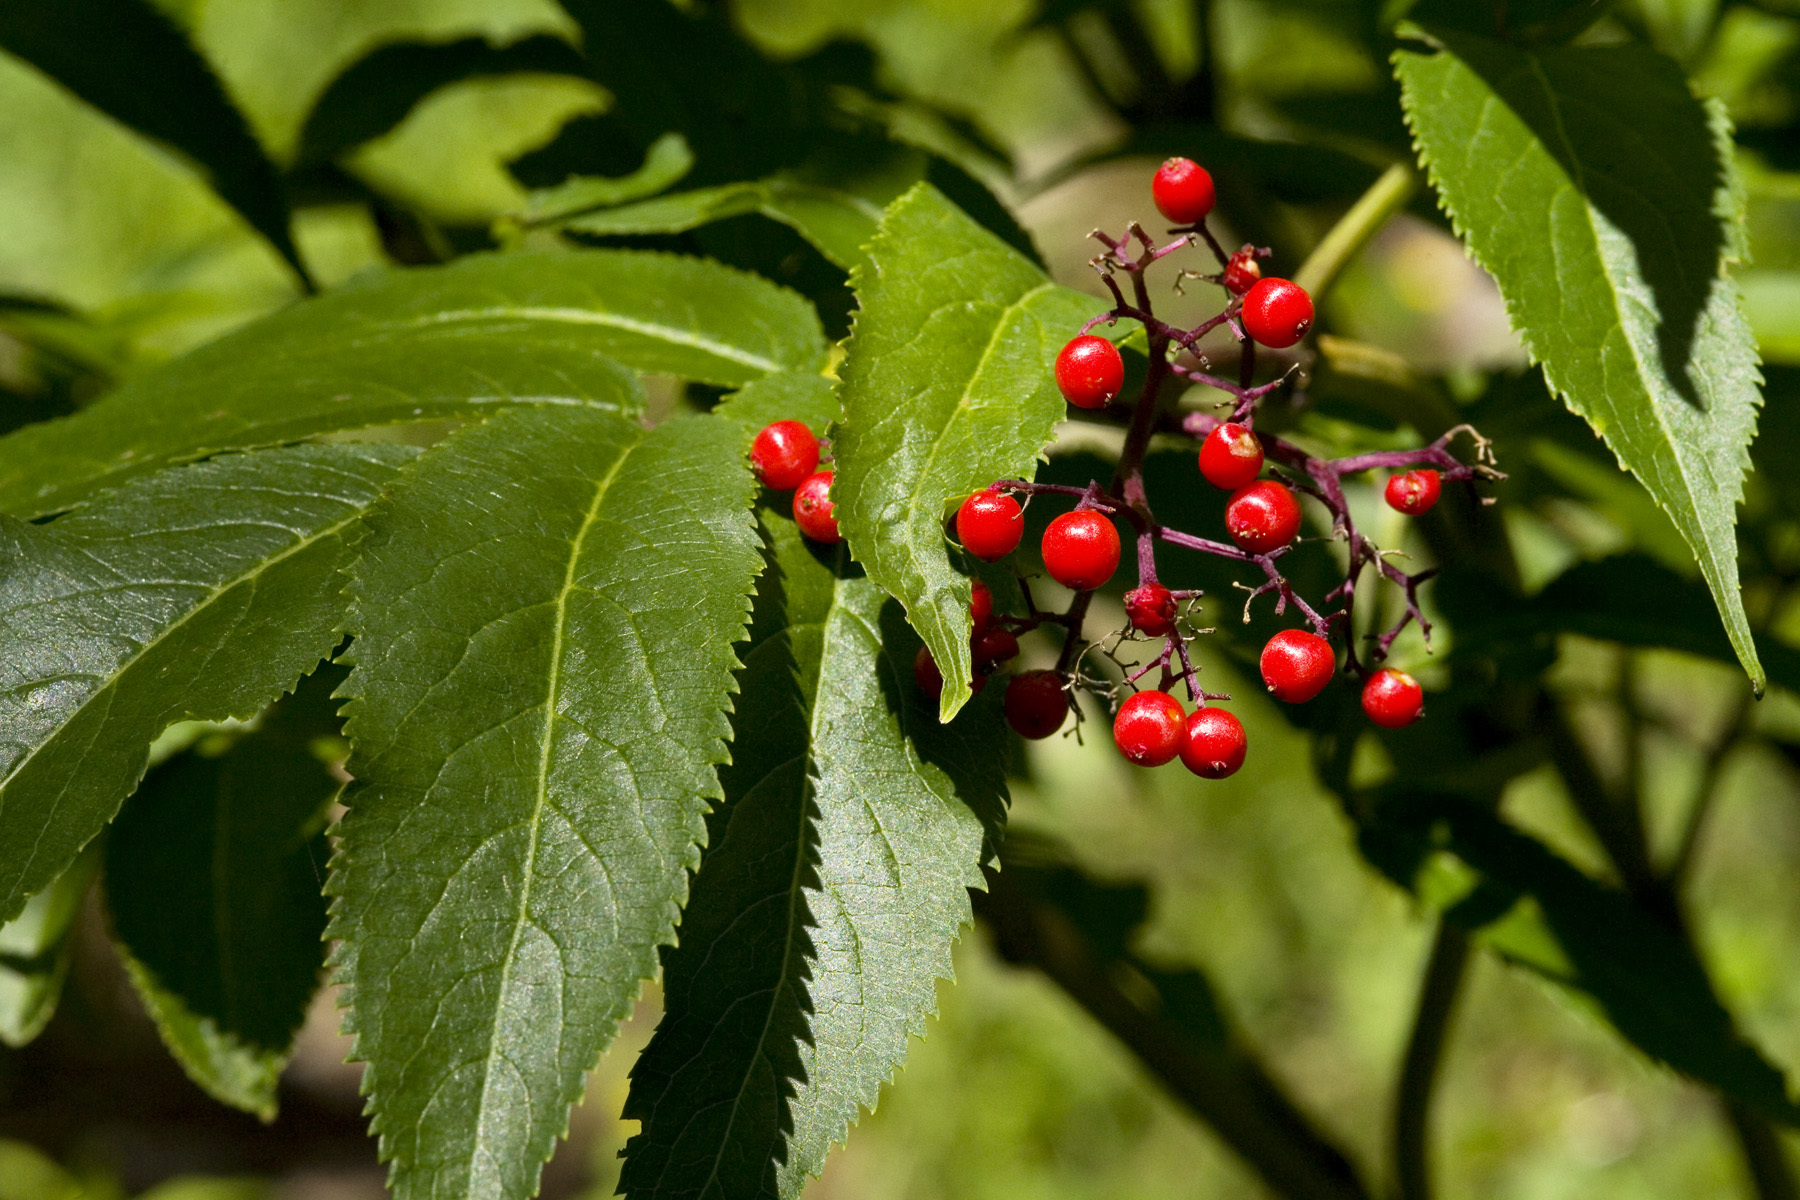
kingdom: Plantae
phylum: Tracheophyta
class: Magnoliopsida
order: Dipsacales
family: Viburnaceae
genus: Sambucus
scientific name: Sambucus racemosa
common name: Red-berried elder
